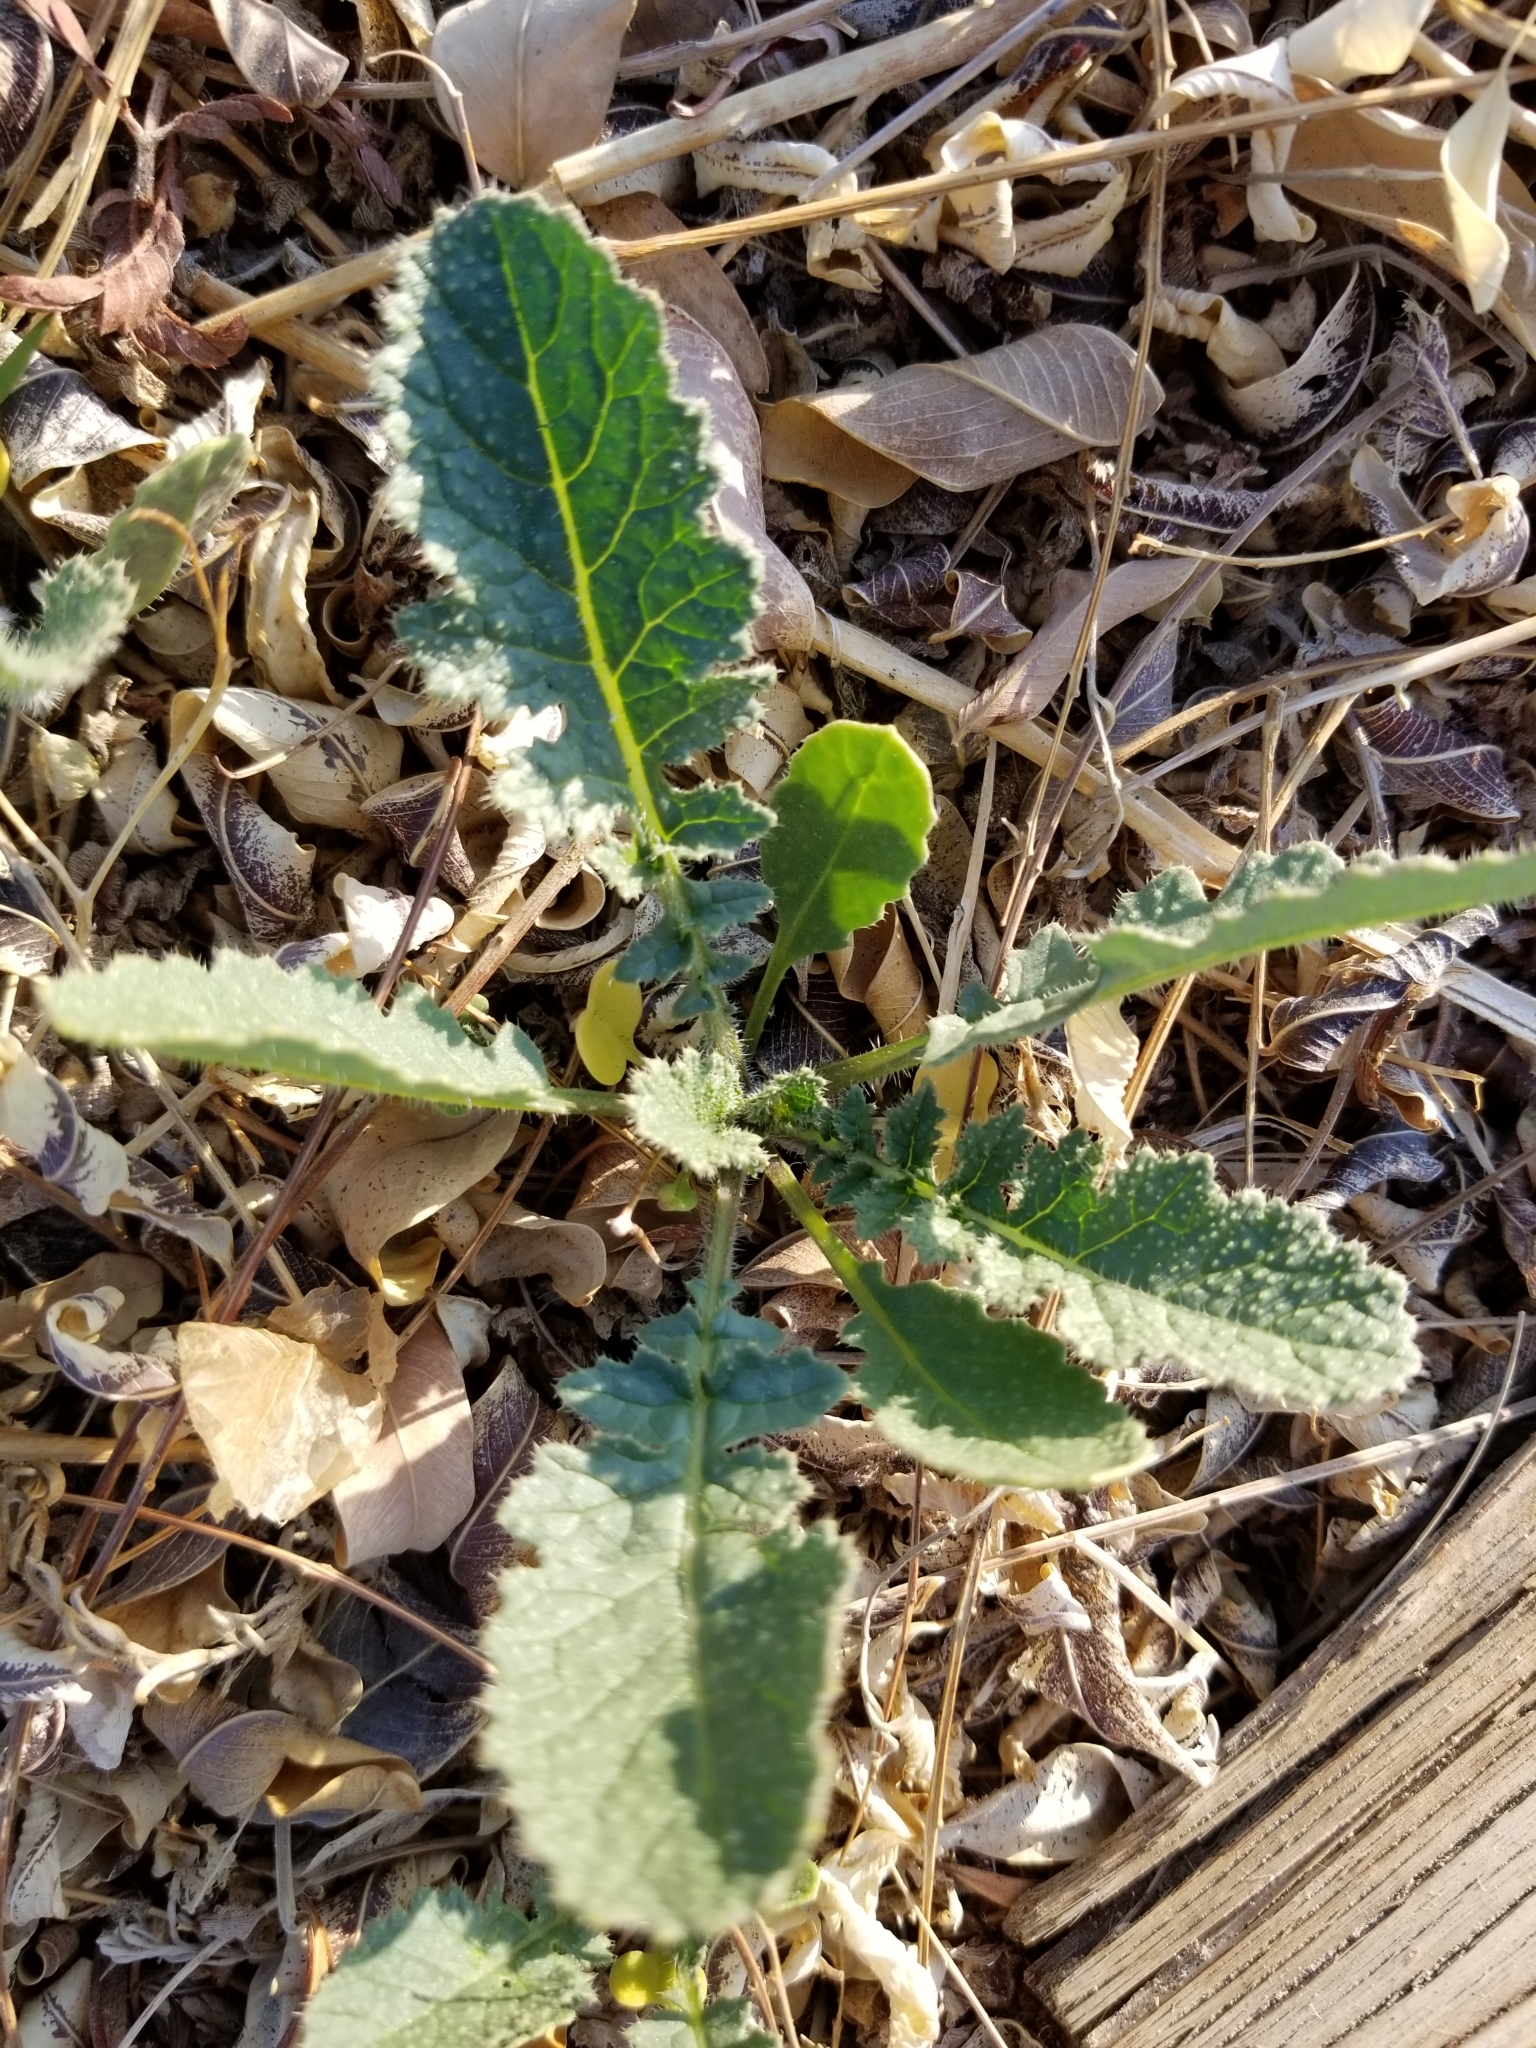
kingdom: Plantae
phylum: Tracheophyta
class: Magnoliopsida
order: Brassicales
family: Brassicaceae
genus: Brassica
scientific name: Brassica tournefortii
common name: Pale cabbage
